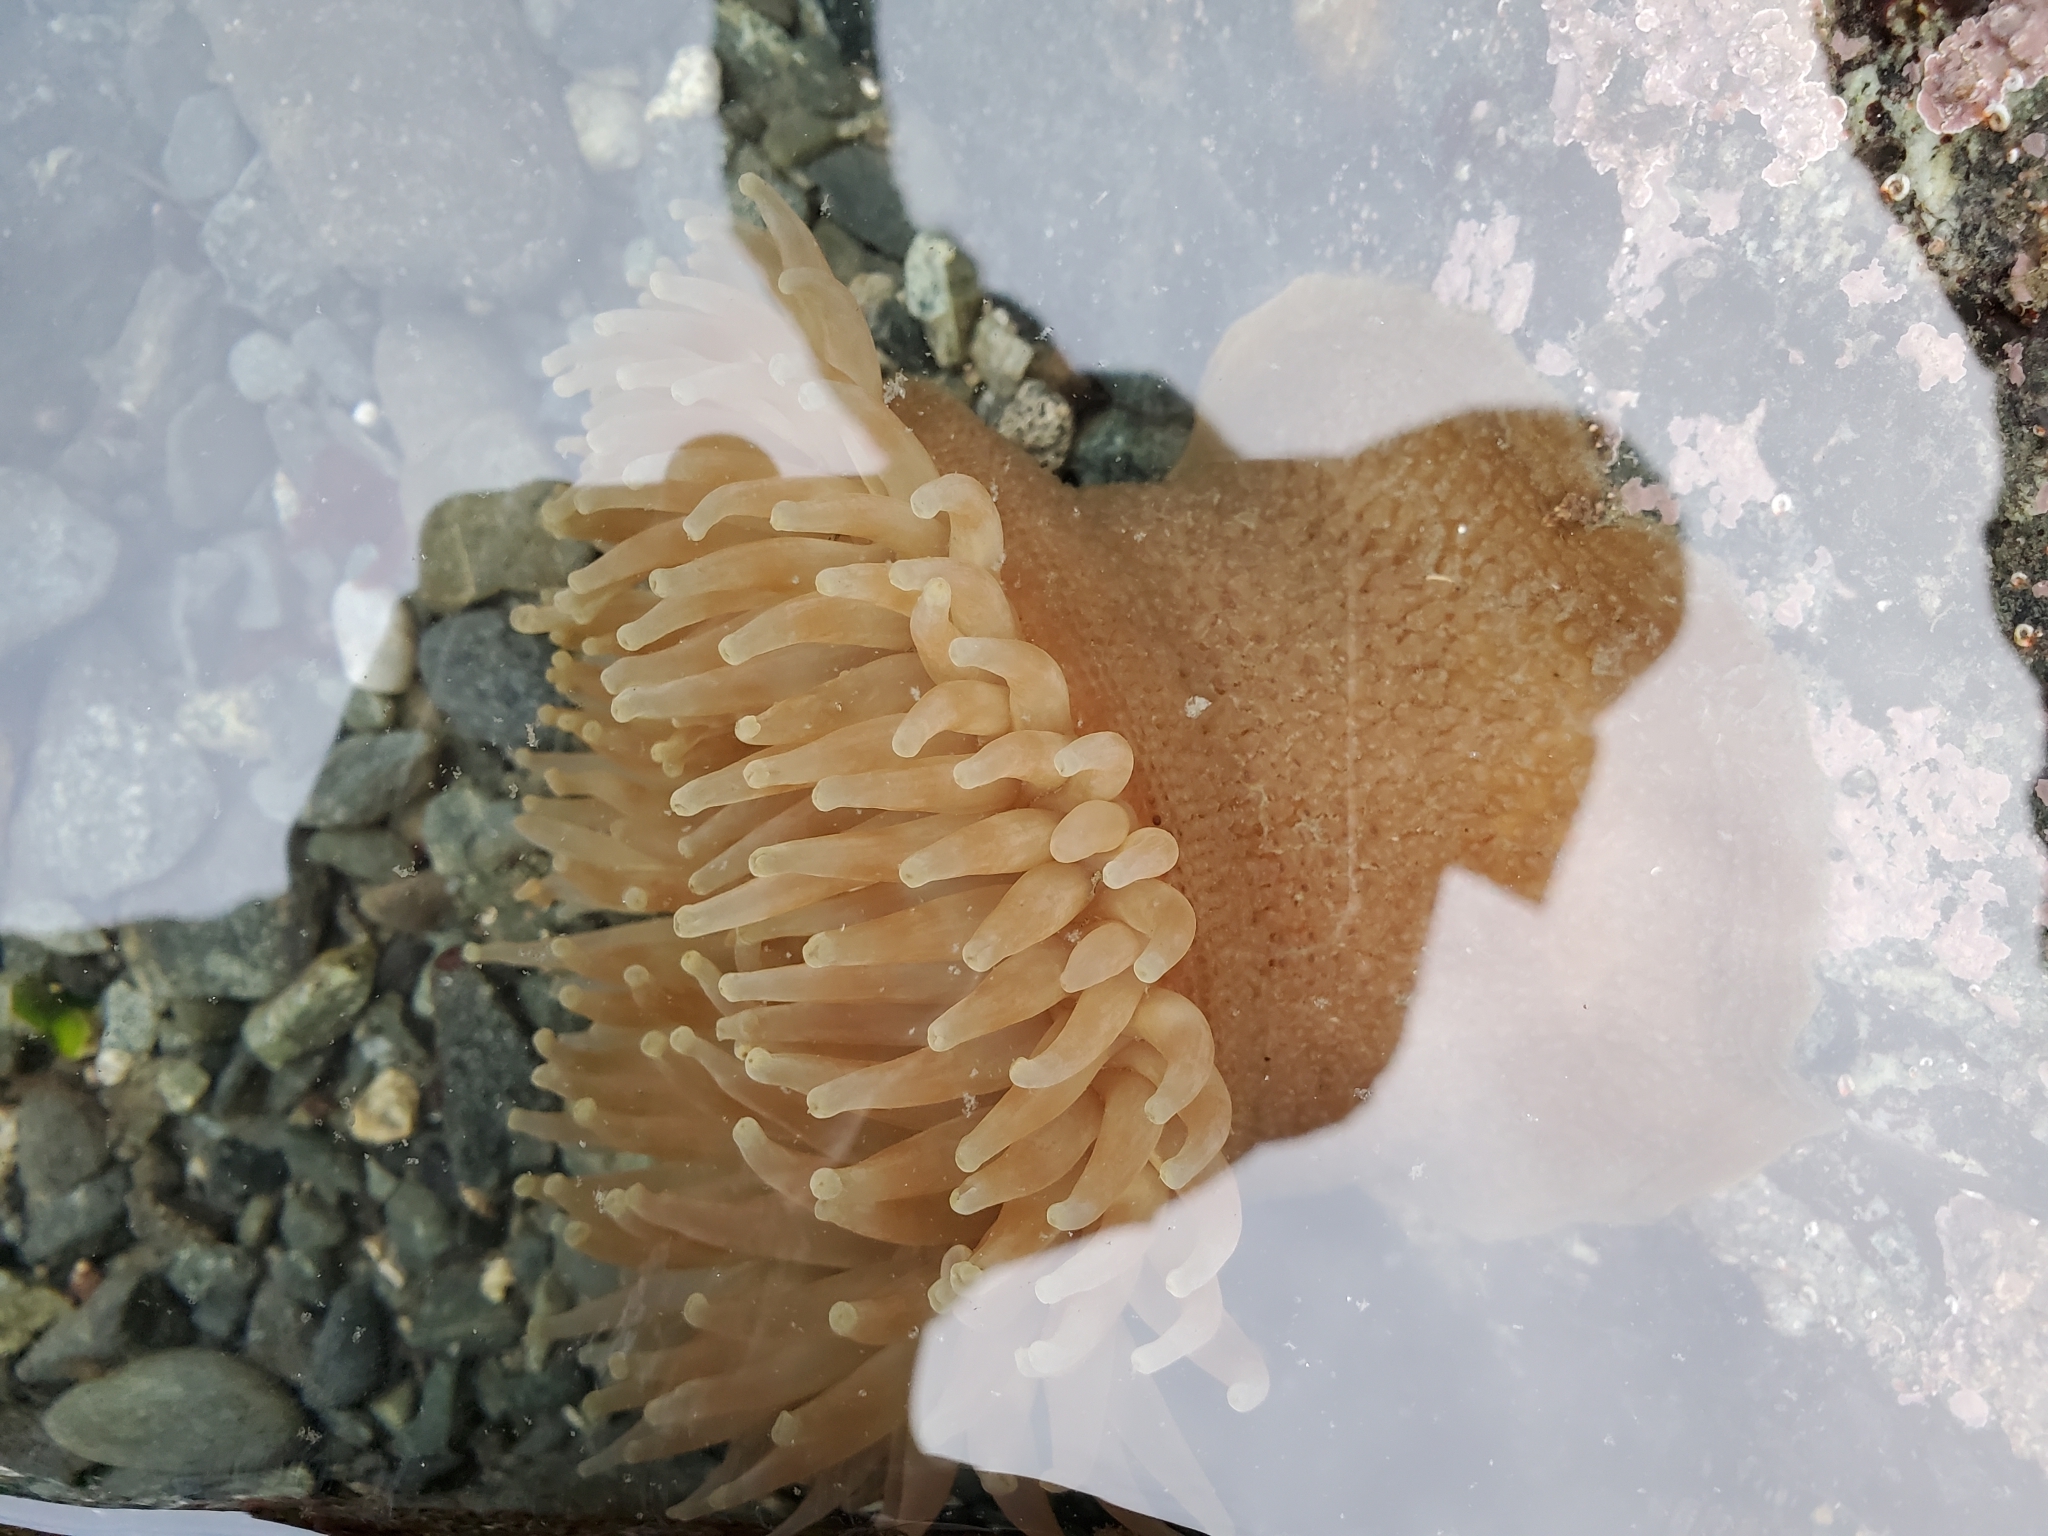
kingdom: Animalia
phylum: Cnidaria
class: Anthozoa
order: Actiniaria
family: Actiniidae
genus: Urticina
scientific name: Urticina grebelnyi
